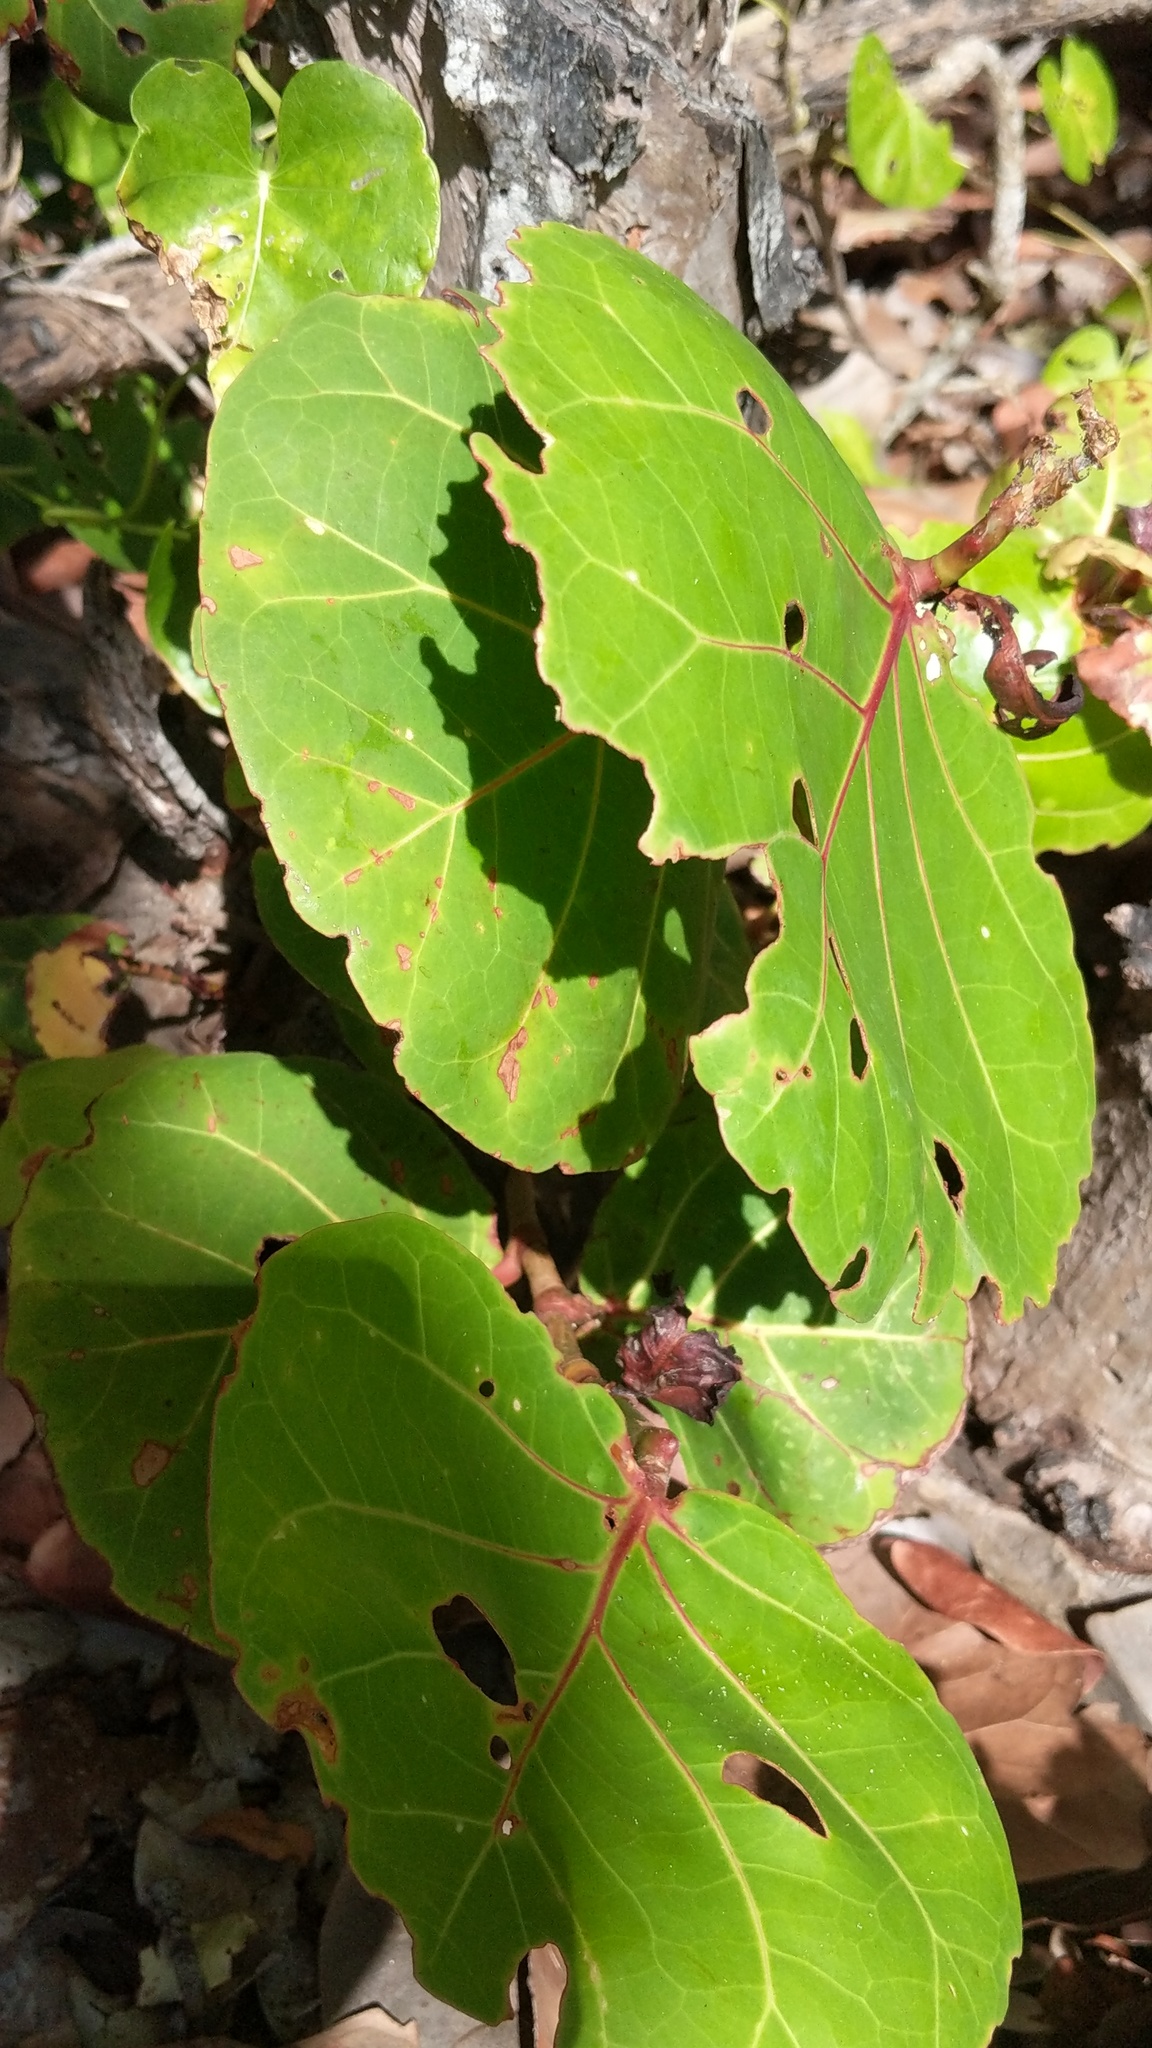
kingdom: Plantae
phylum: Tracheophyta
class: Magnoliopsida
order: Caryophyllales
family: Polygonaceae
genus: Coccoloba
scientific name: Coccoloba uvifera
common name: Seagrape
